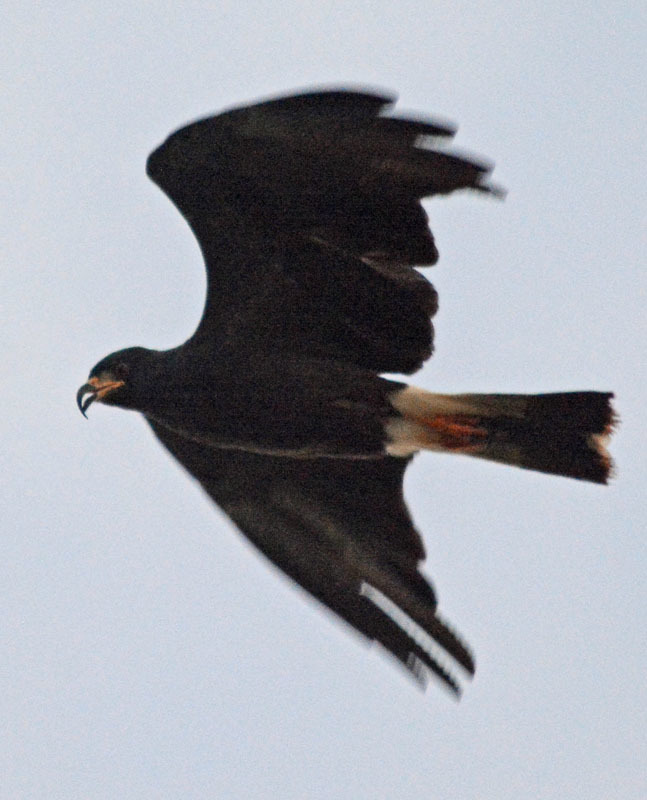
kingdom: Animalia
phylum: Chordata
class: Aves
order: Accipitriformes
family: Accipitridae
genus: Rostrhamus
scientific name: Rostrhamus sociabilis
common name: Snail kite
